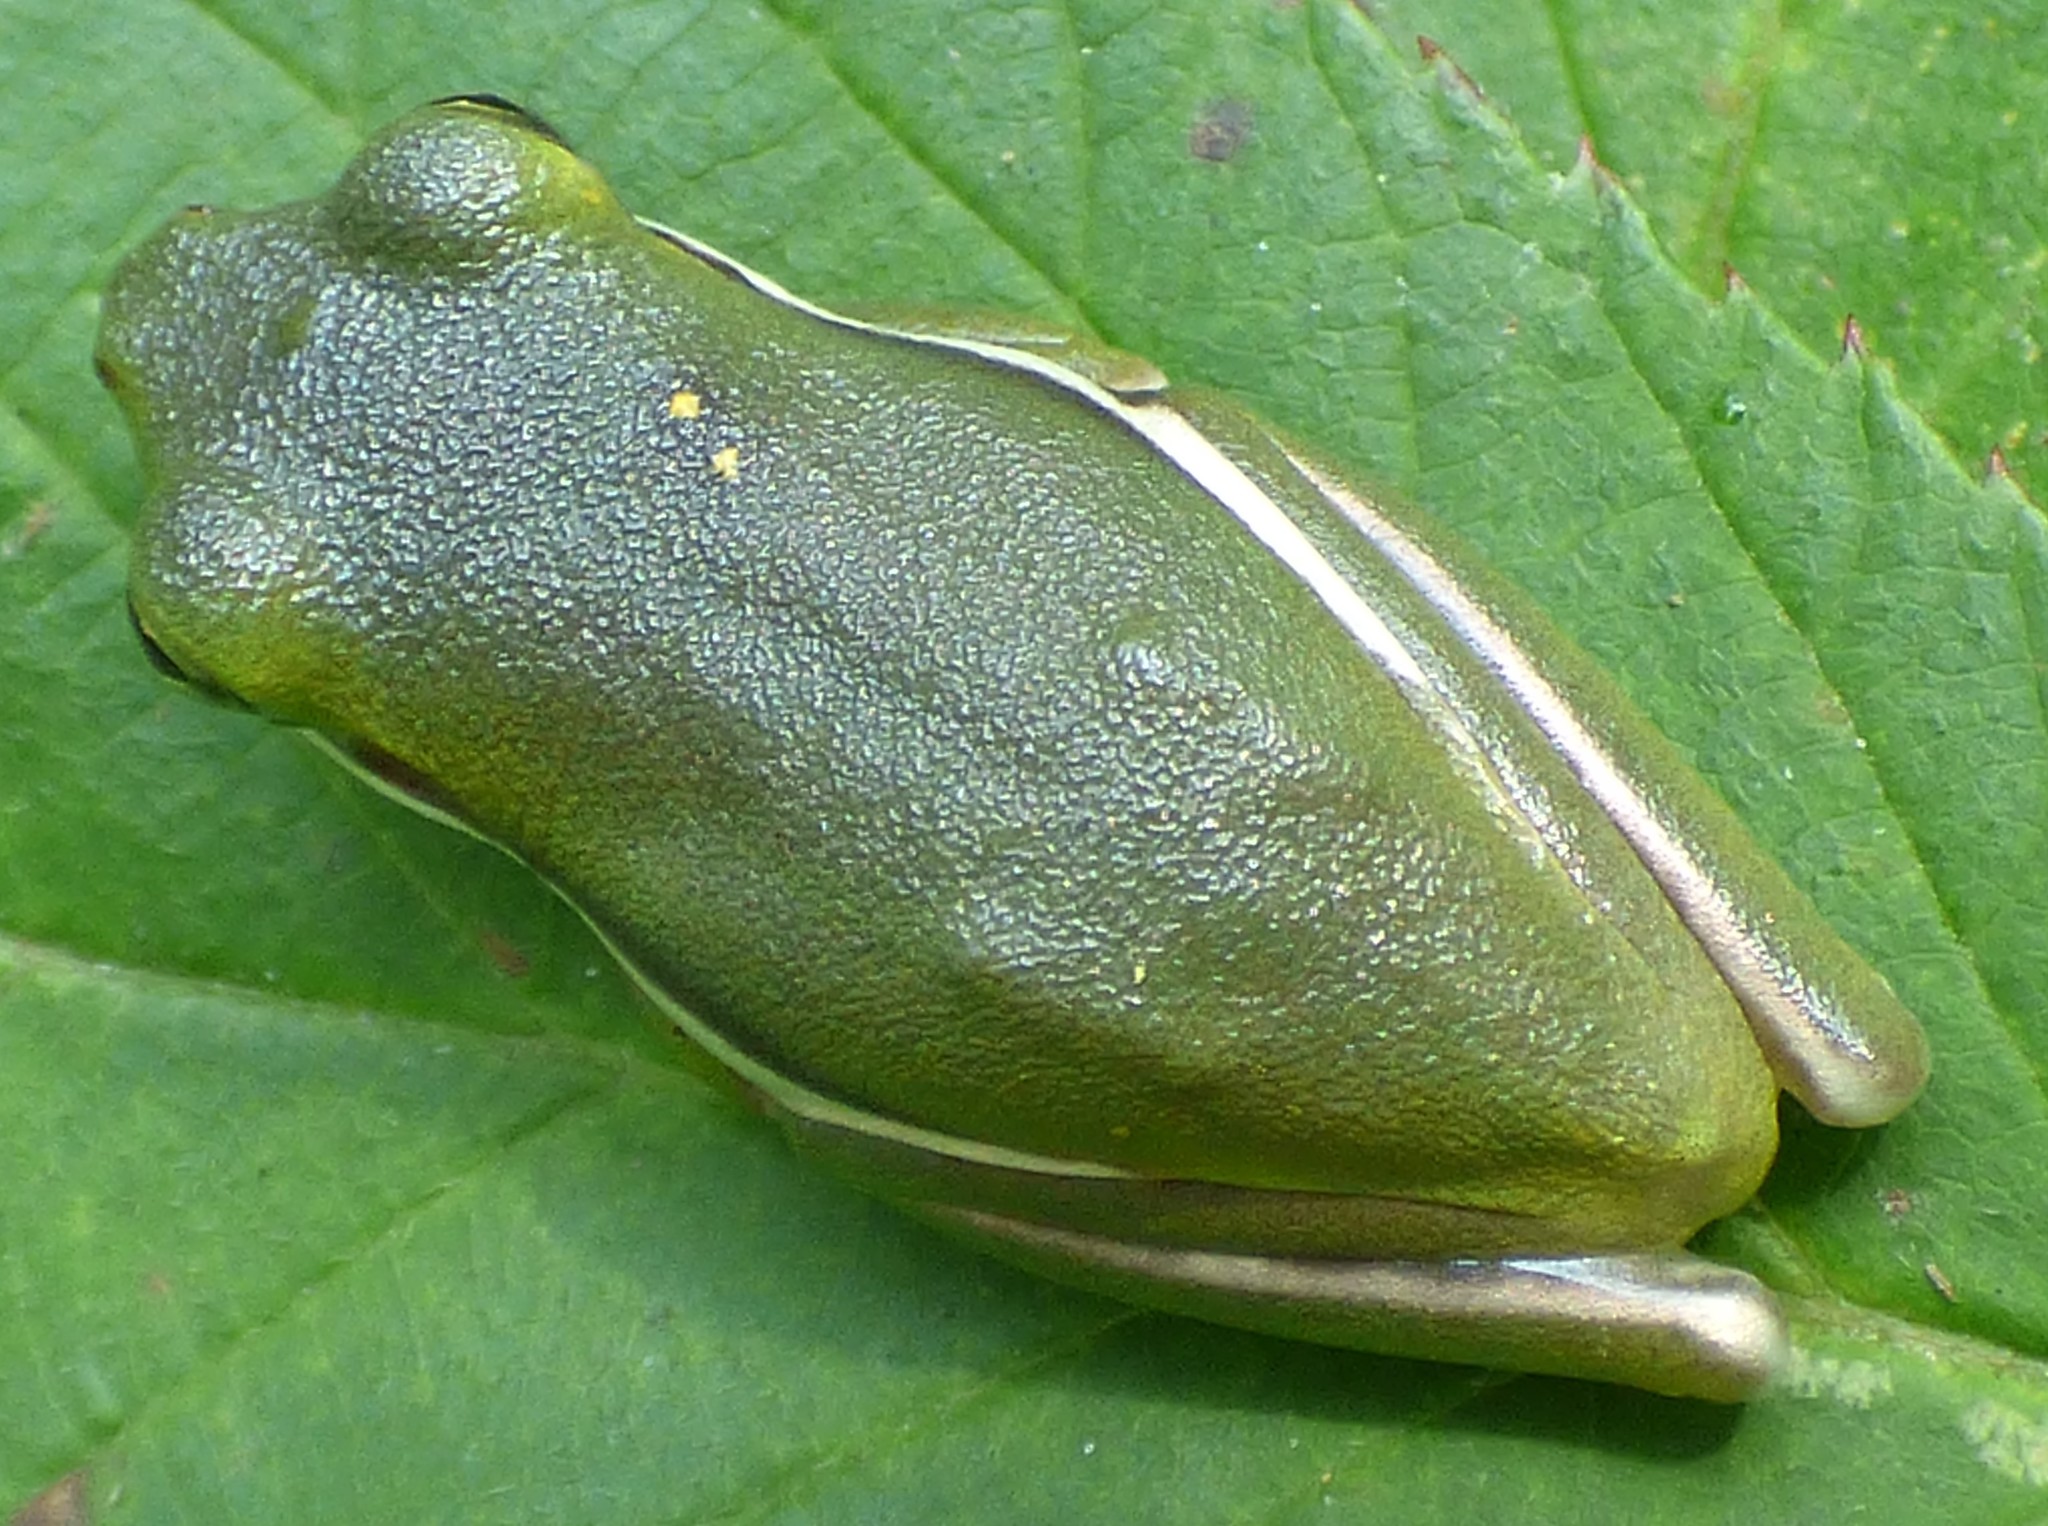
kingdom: Animalia
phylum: Chordata
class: Amphibia
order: Anura
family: Hylidae
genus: Dryophytes
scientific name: Dryophytes cinereus
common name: Green treefrog
